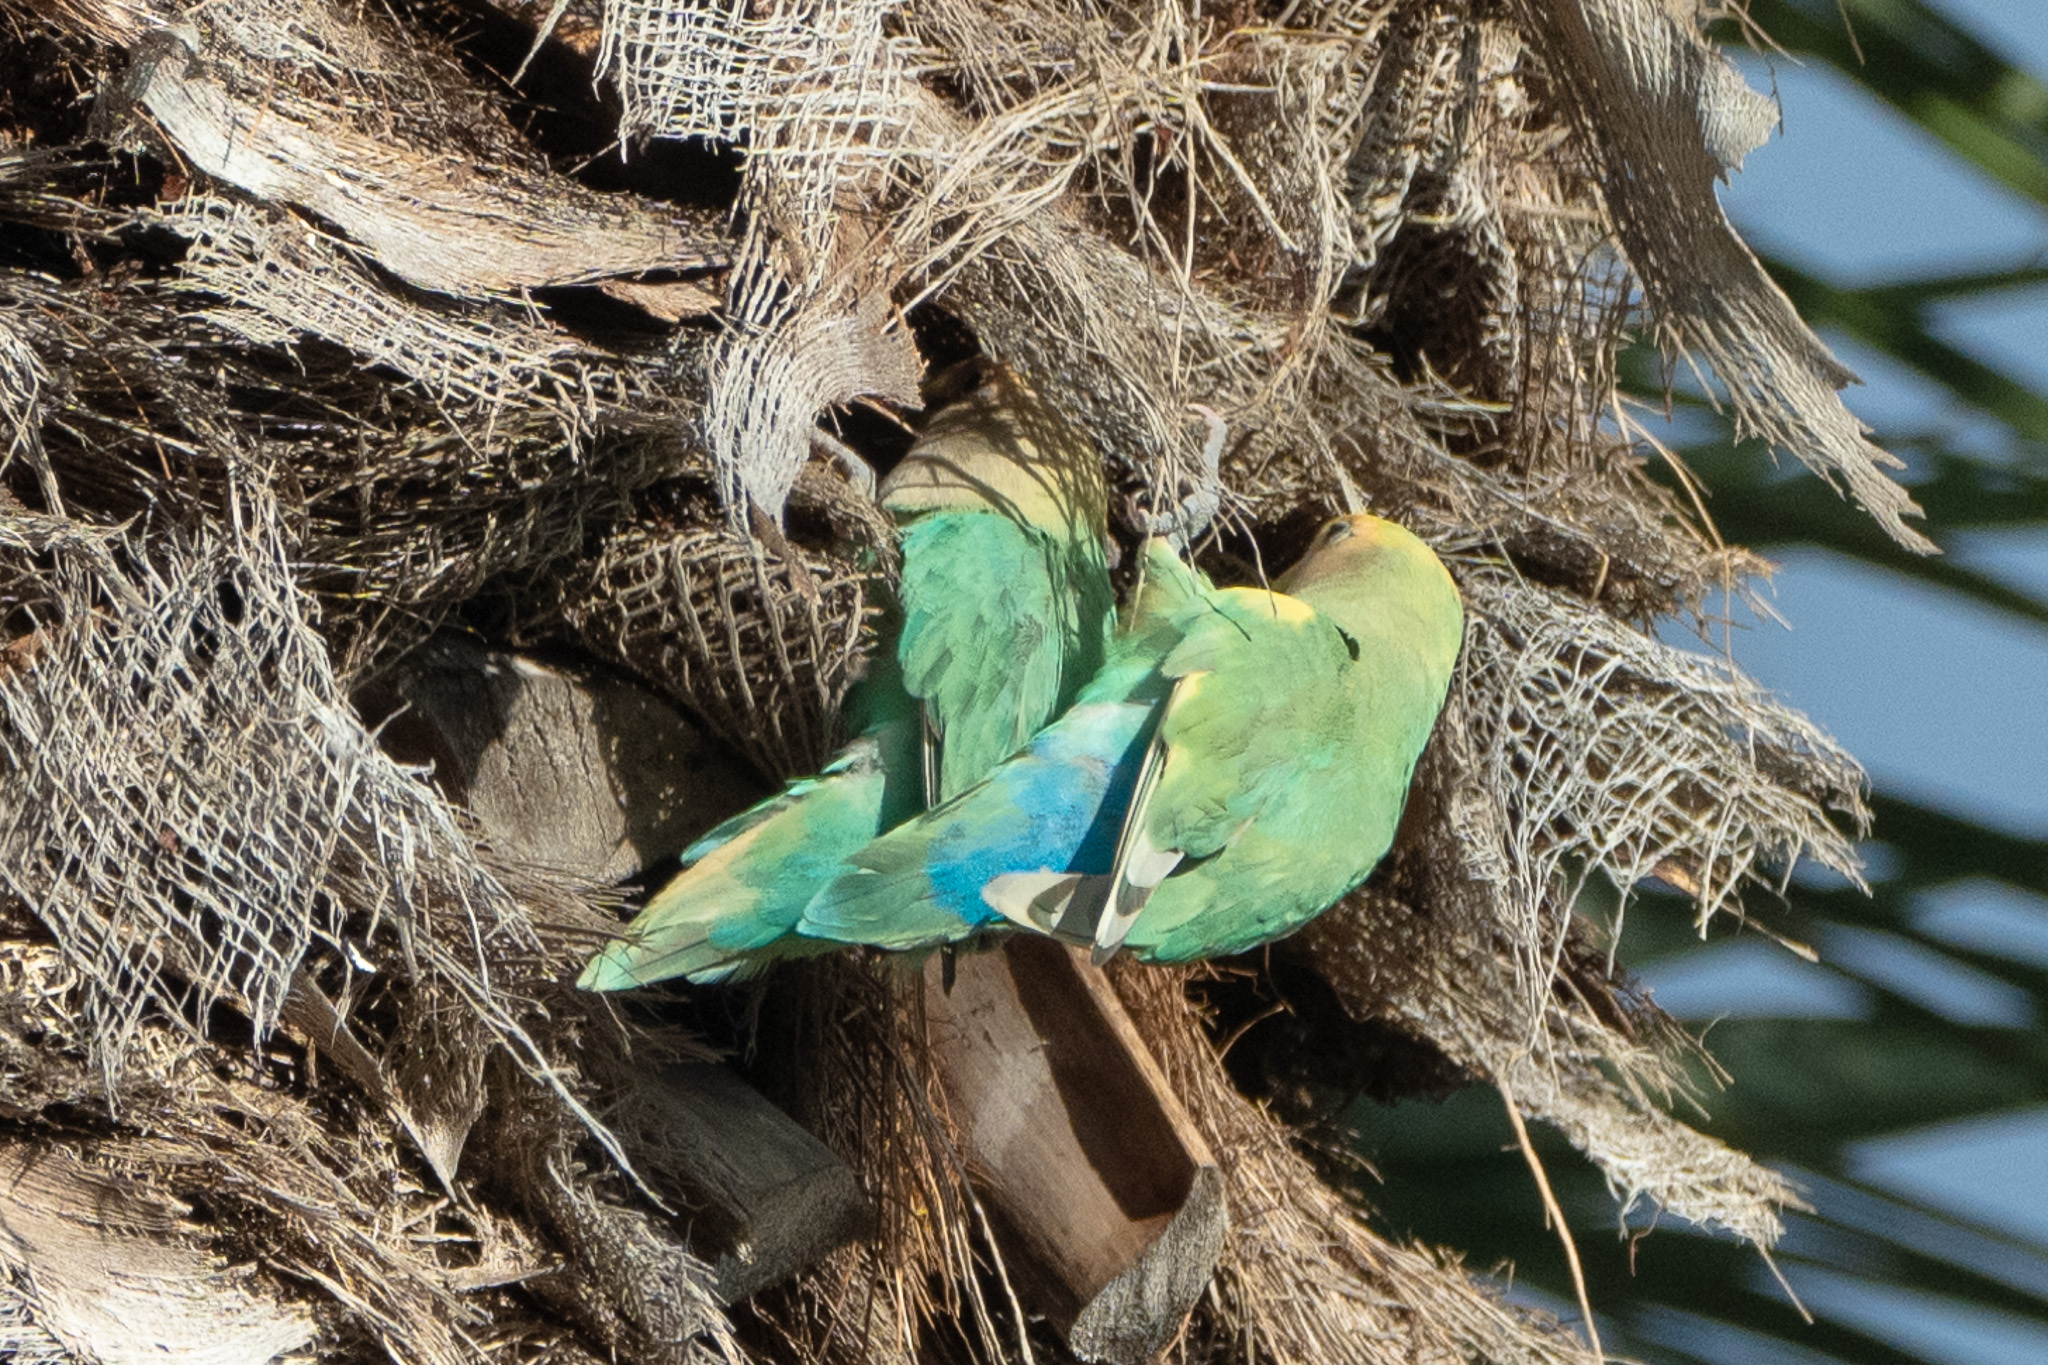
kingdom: Animalia
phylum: Chordata
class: Aves
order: Psittaciformes
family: Psittacidae
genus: Agapornis
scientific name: Agapornis roseicollis
